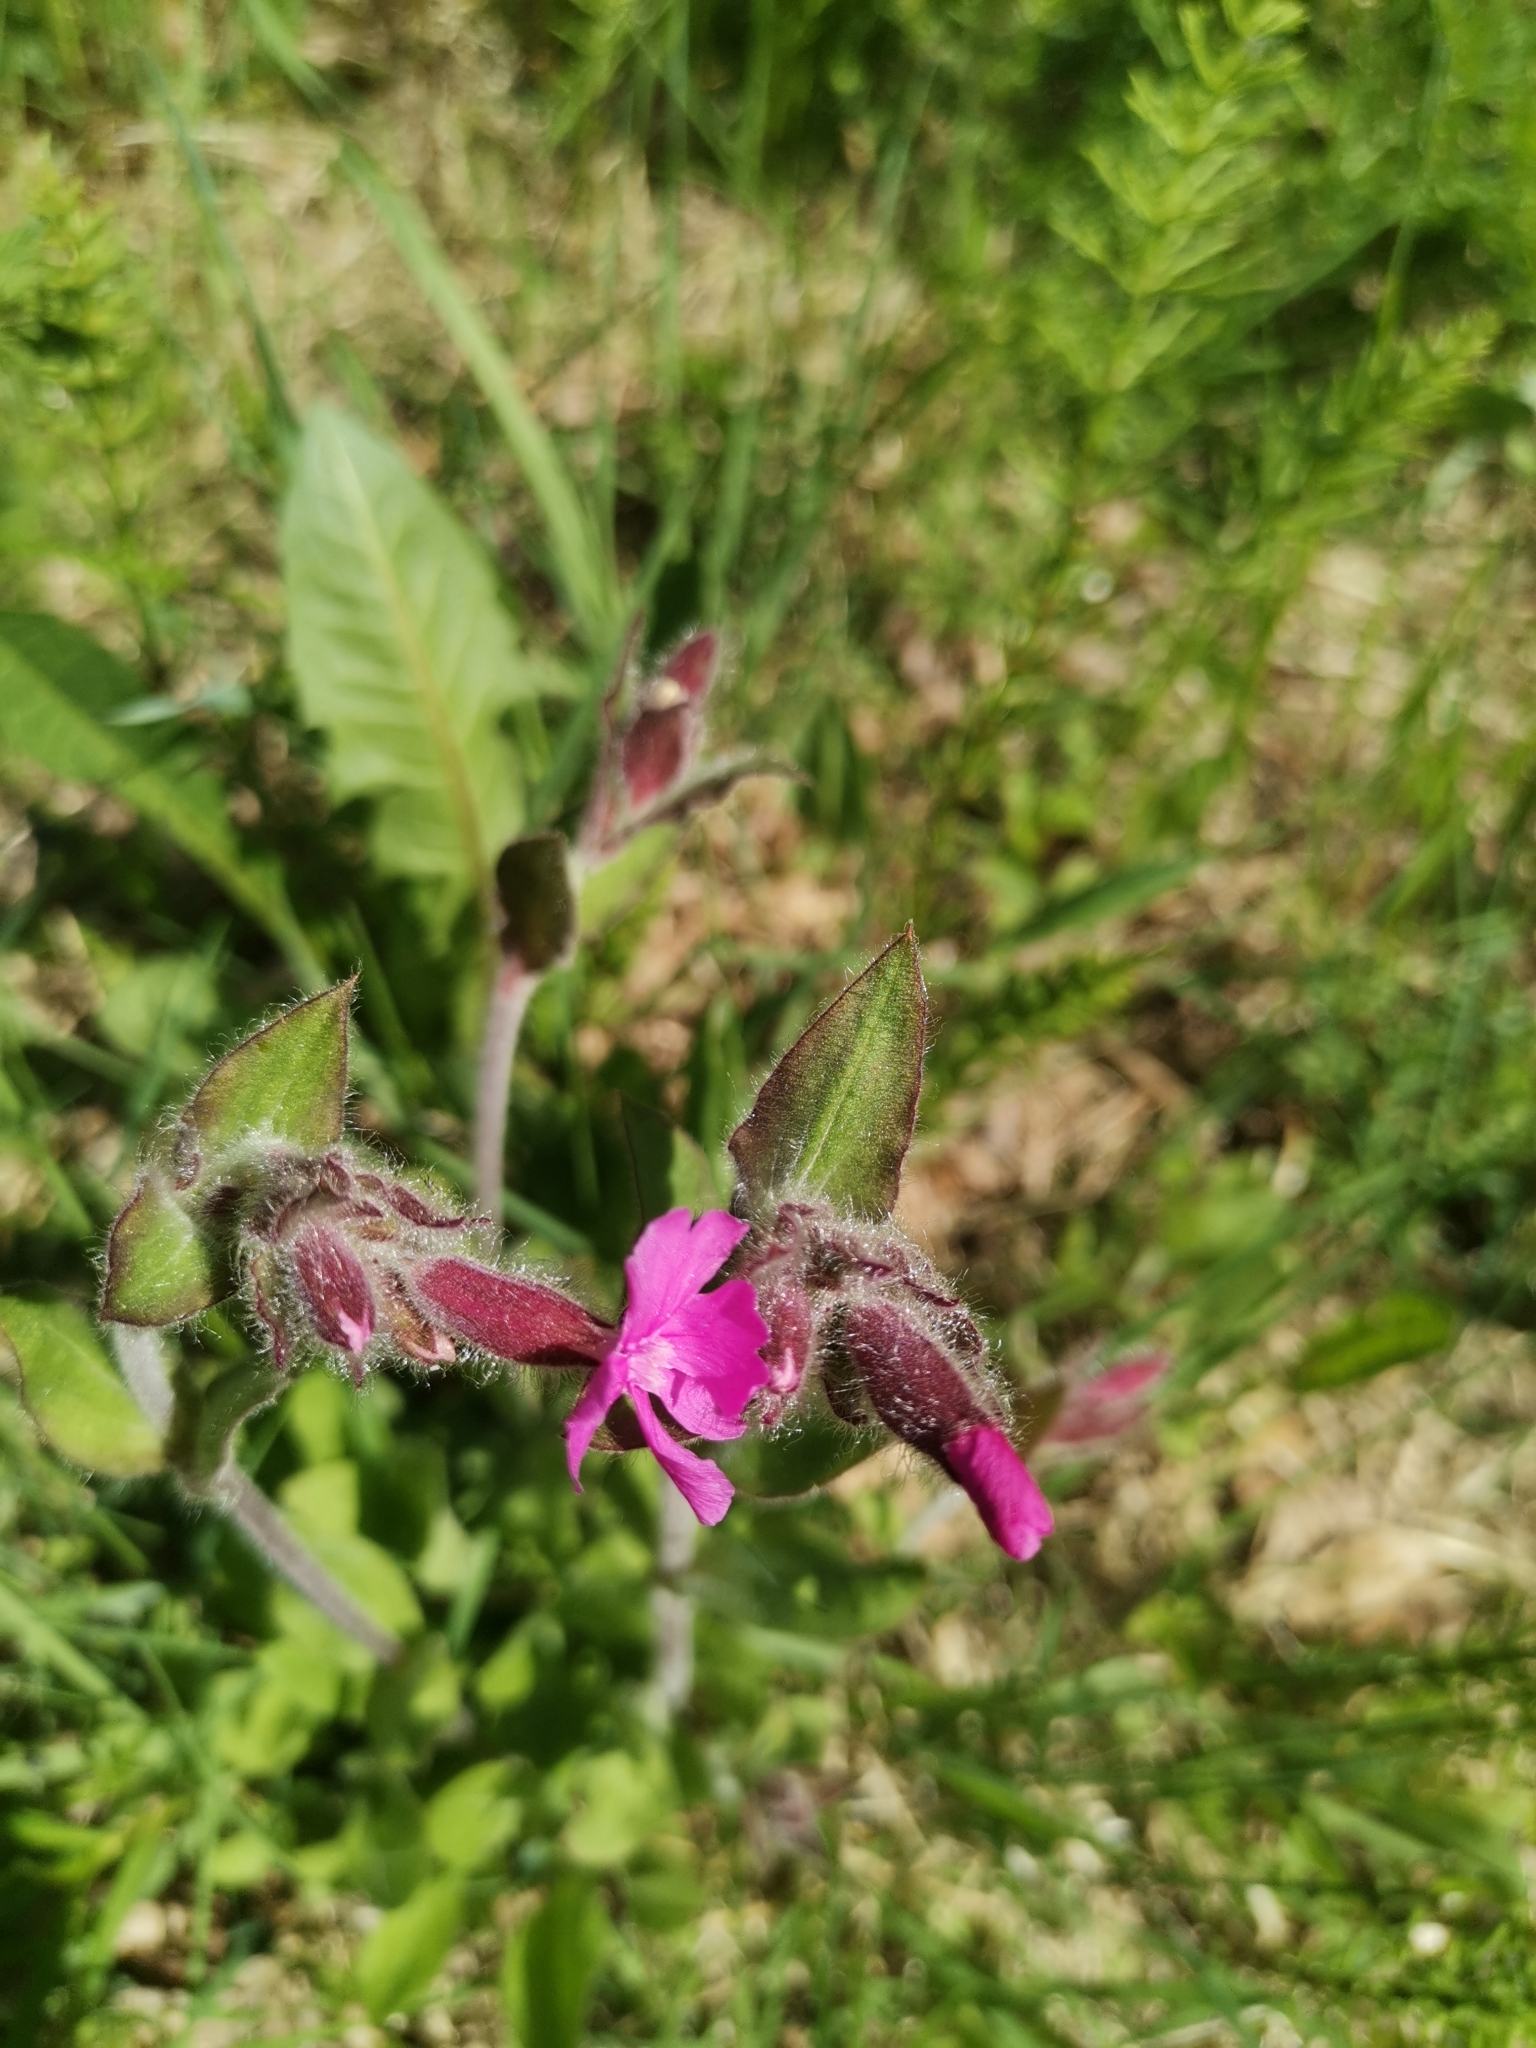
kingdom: Plantae
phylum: Tracheophyta
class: Magnoliopsida
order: Caryophyllales
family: Caryophyllaceae
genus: Silene
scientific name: Silene dioica
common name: Red campion
